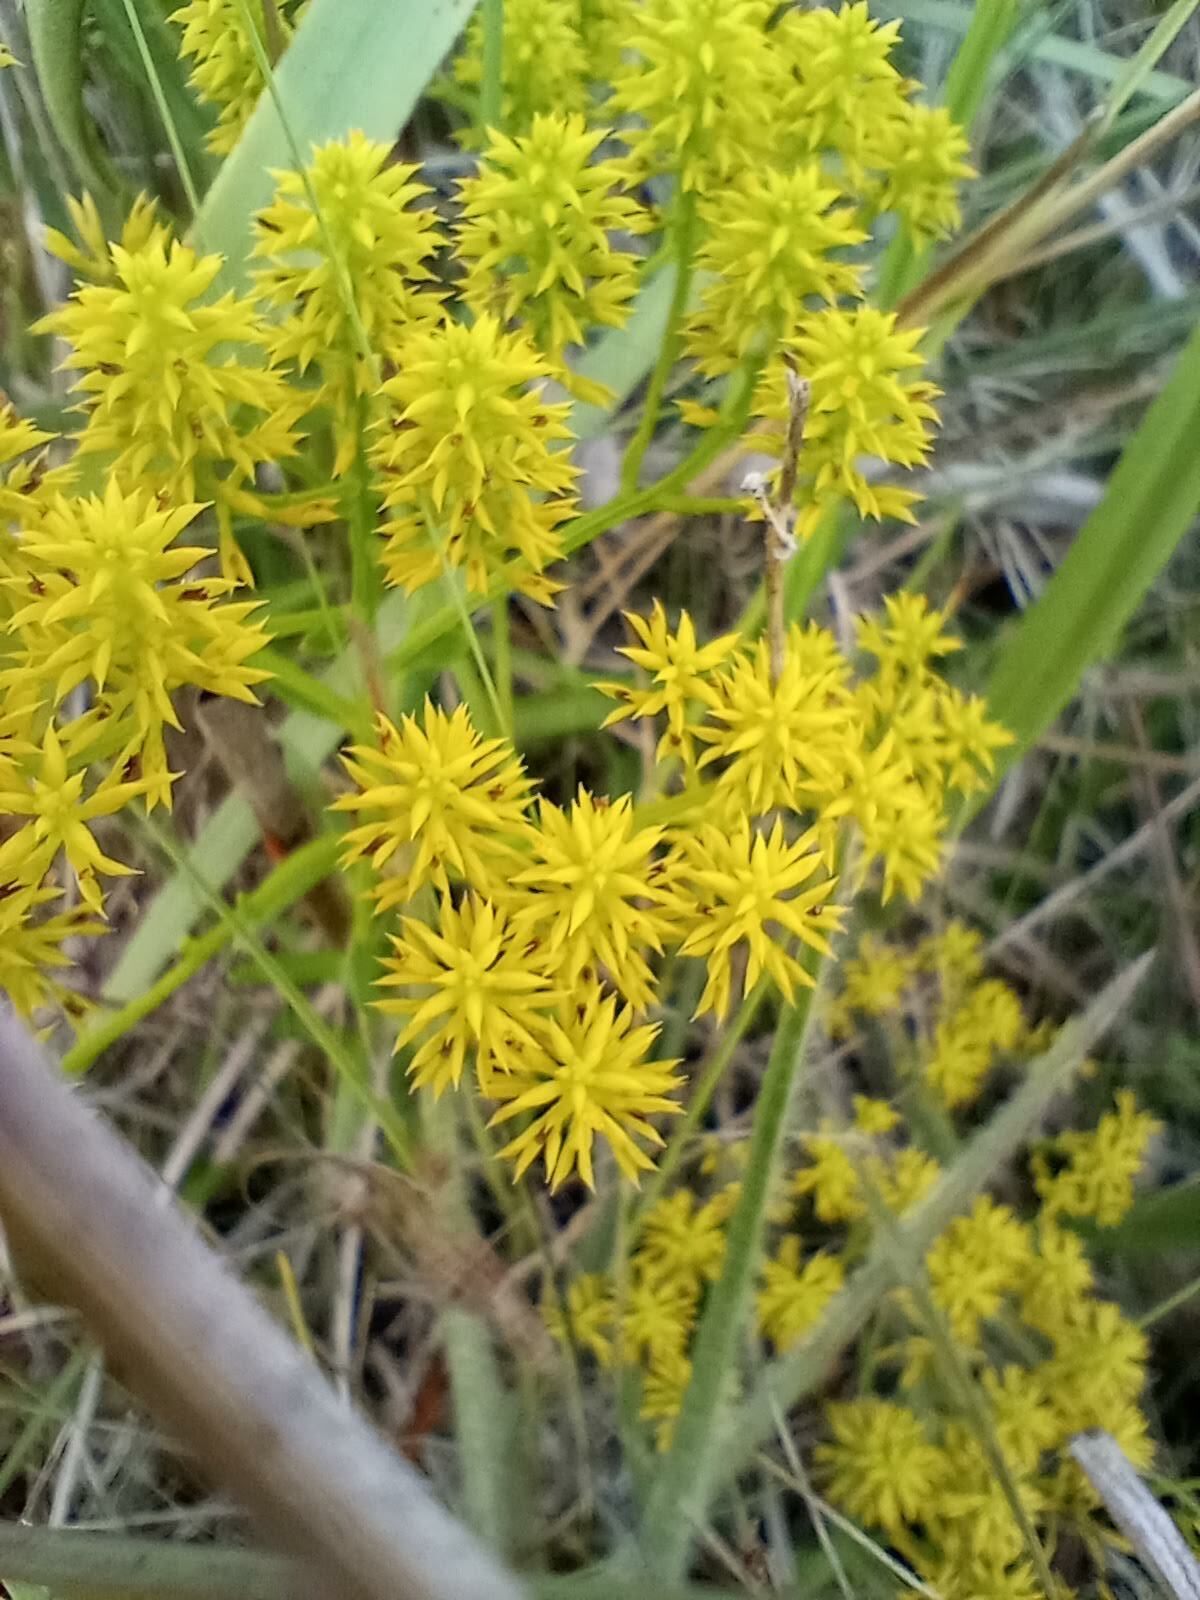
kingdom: Plantae
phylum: Tracheophyta
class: Magnoliopsida
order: Fabales
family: Polygalaceae
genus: Polygala
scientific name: Polygala ramosa
